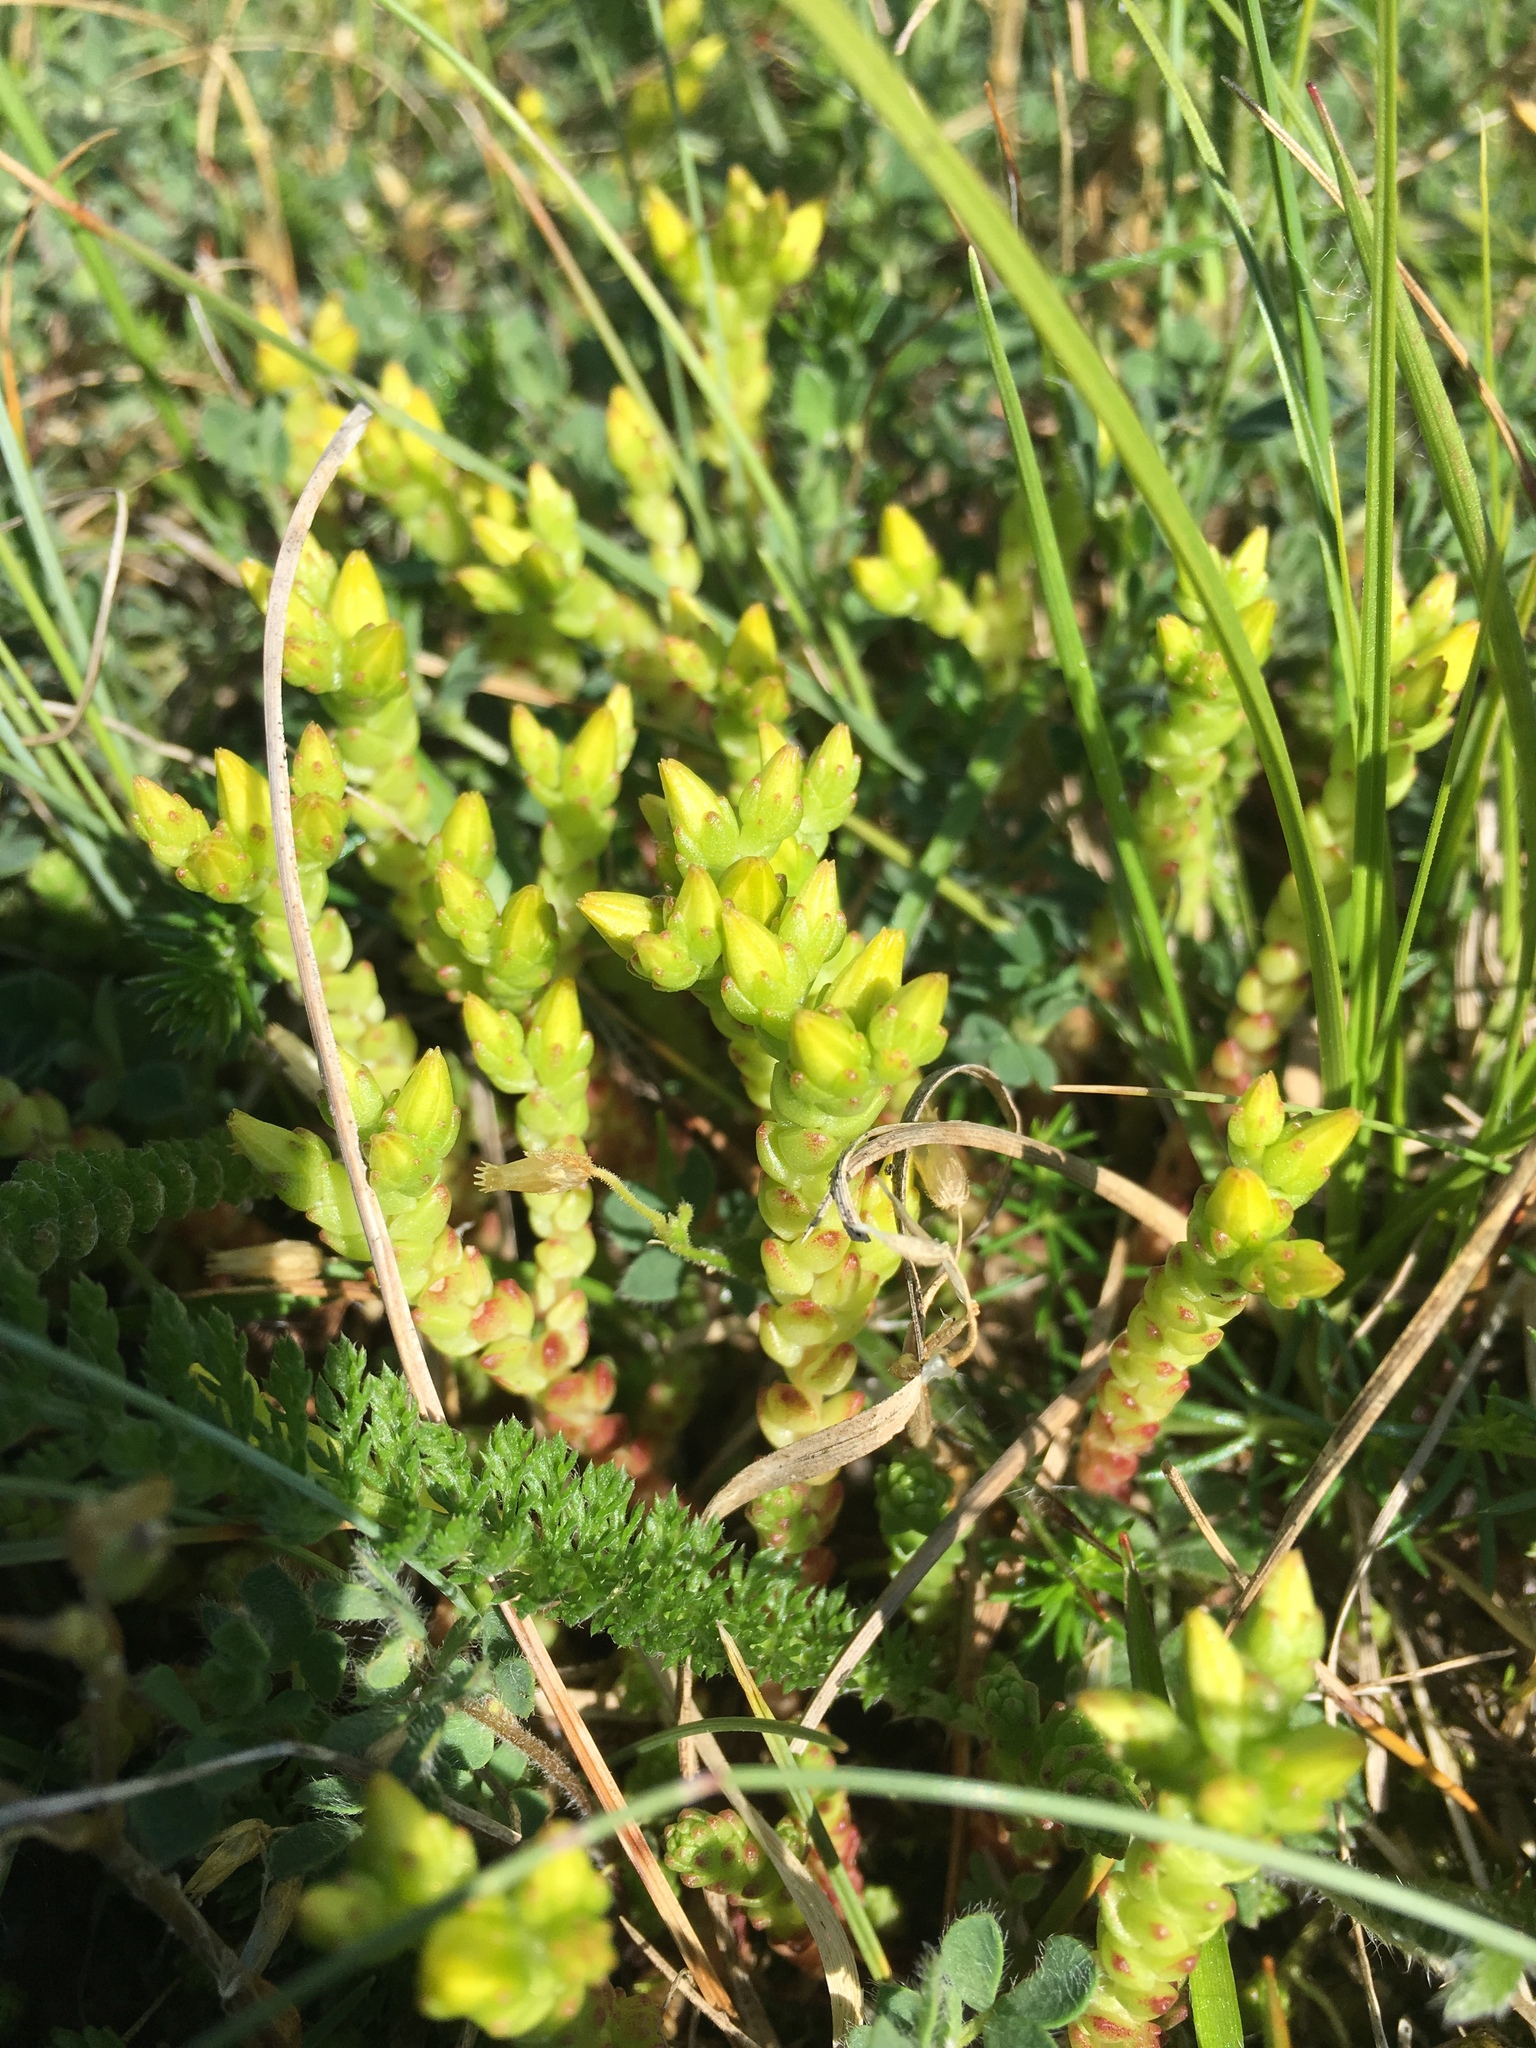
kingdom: Plantae
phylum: Tracheophyta
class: Magnoliopsida
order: Saxifragales
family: Crassulaceae
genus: Sedum
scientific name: Sedum acre
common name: Biting stonecrop
